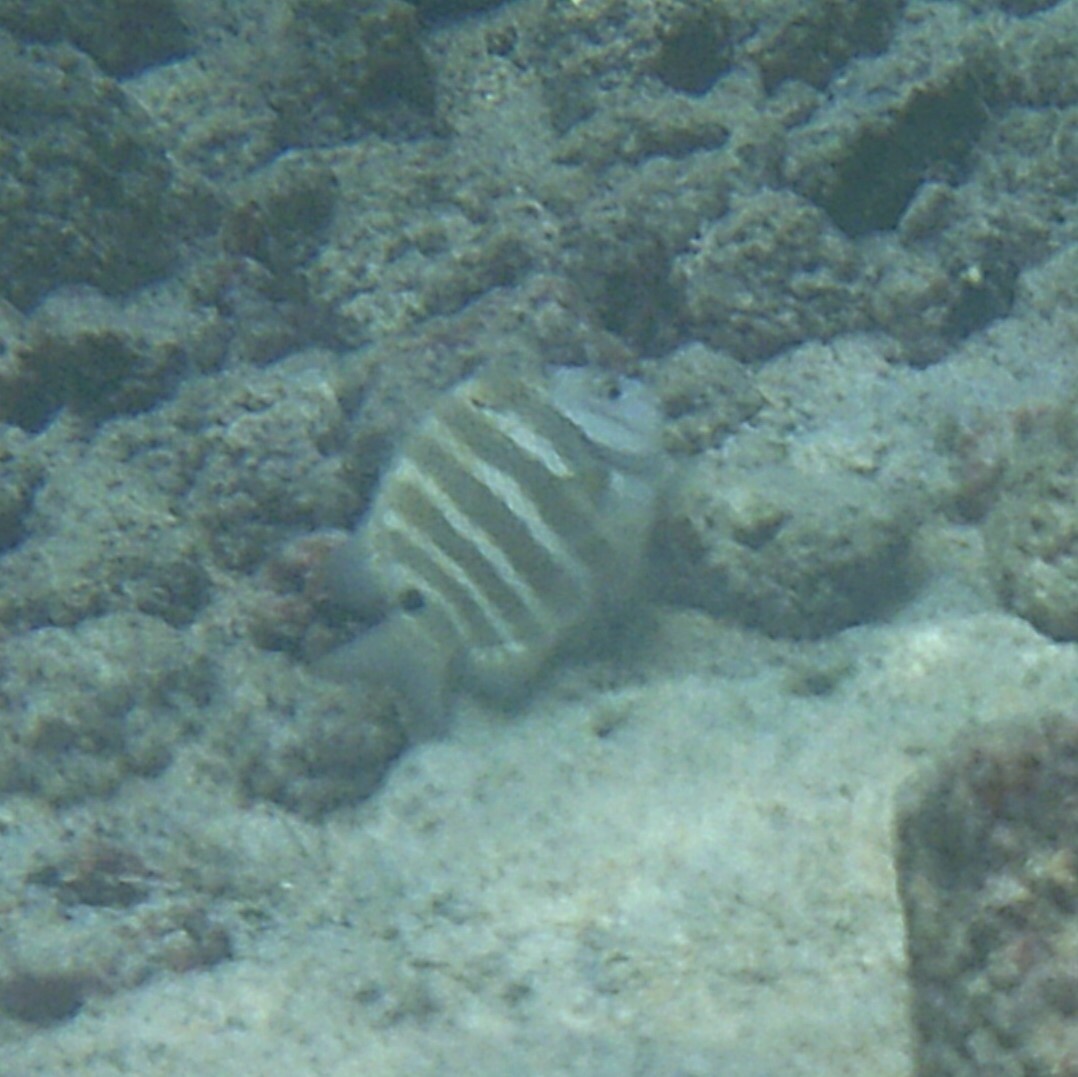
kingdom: Animalia
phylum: Chordata
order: Perciformes
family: Pomacentridae
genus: Abudefduf
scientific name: Abudefduf sordidus
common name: Blackspot sergeant
